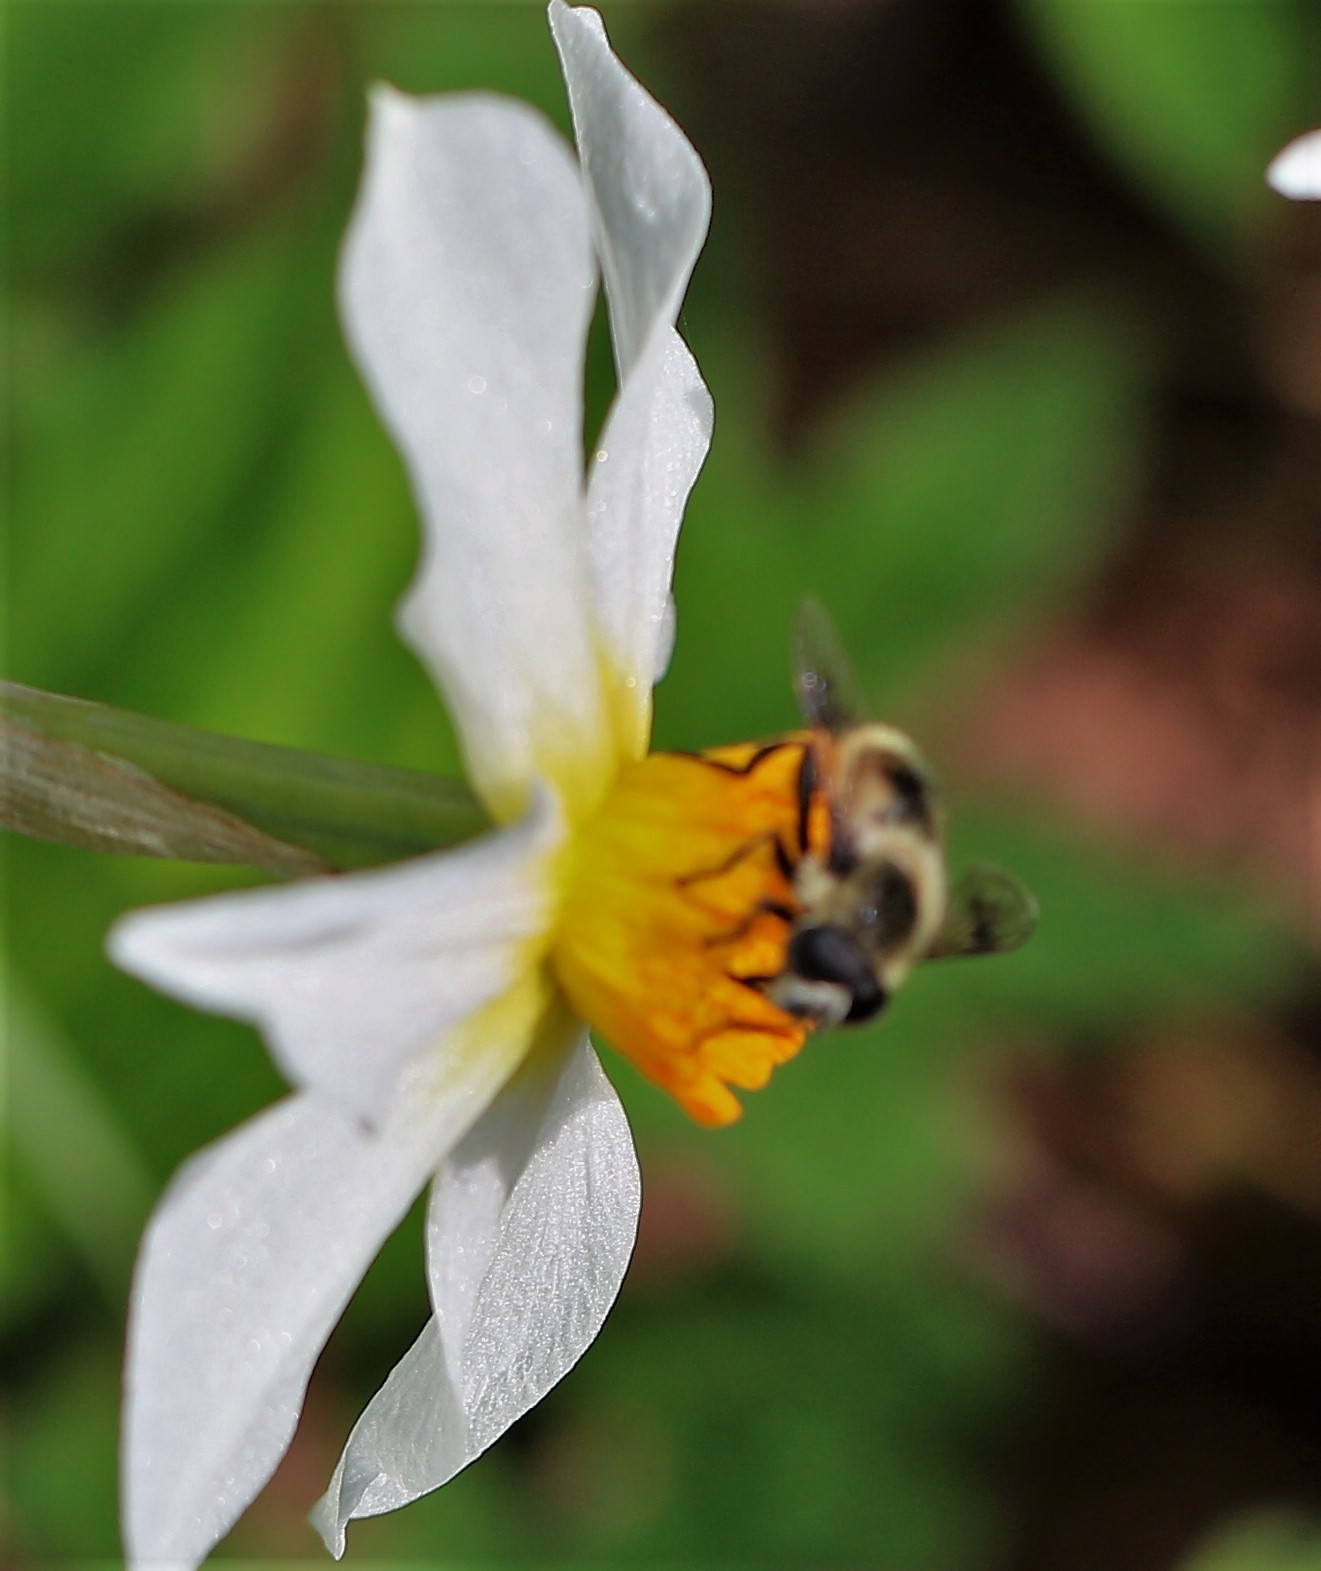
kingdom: Animalia
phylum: Arthropoda
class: Insecta
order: Diptera
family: Syrphidae
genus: Eristalis
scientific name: Eristalis anthophorina
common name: Orange-spotted drone fly
